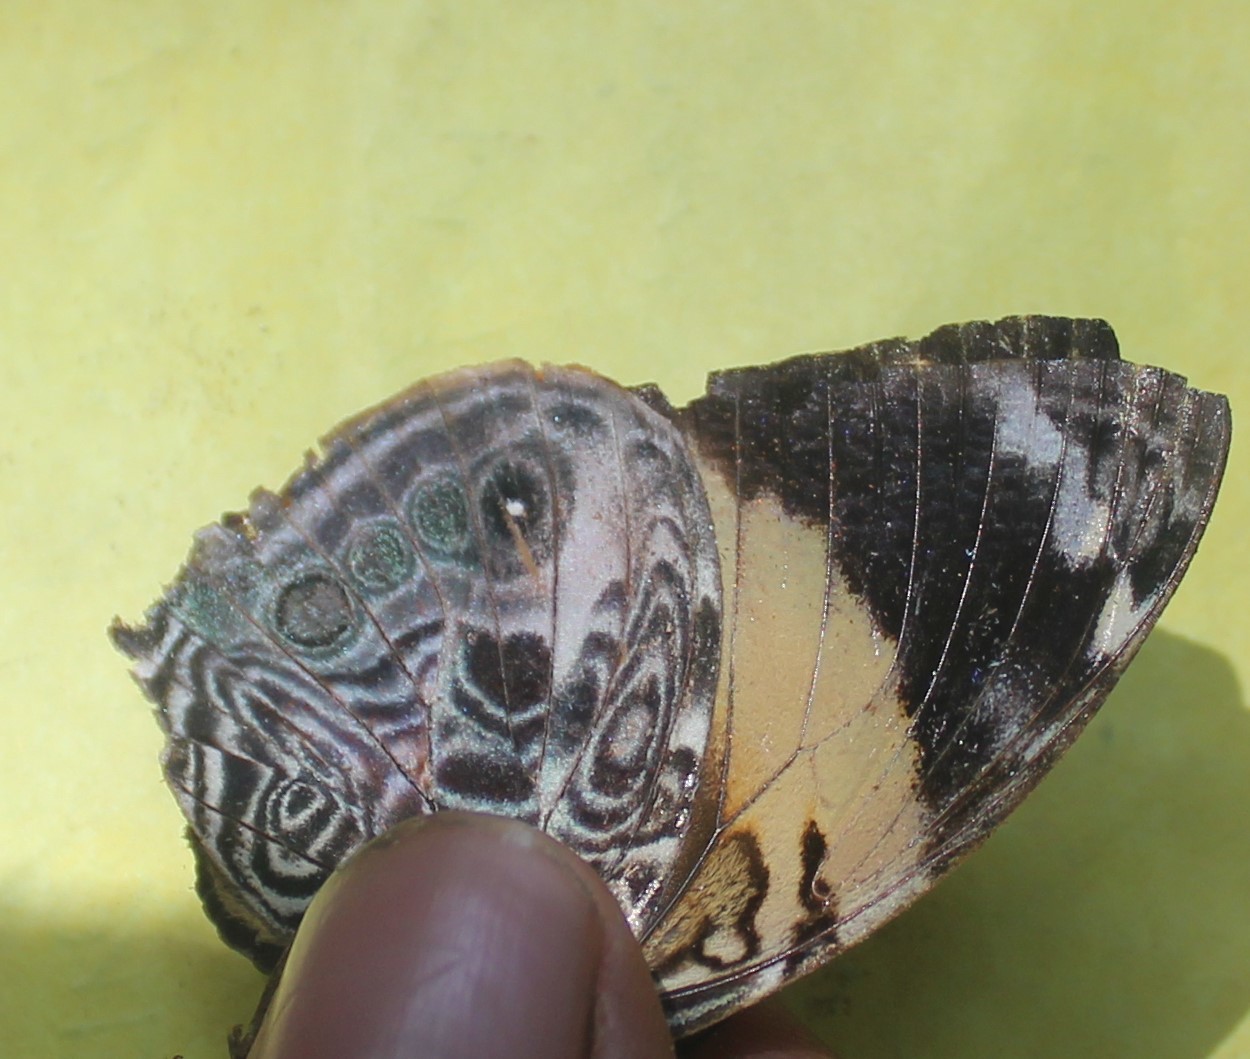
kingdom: Animalia
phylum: Arthropoda
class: Insecta
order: Lepidoptera
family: Nymphalidae
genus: Smyrna
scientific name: Smyrna blomfildia
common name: Blomfild's beauty
